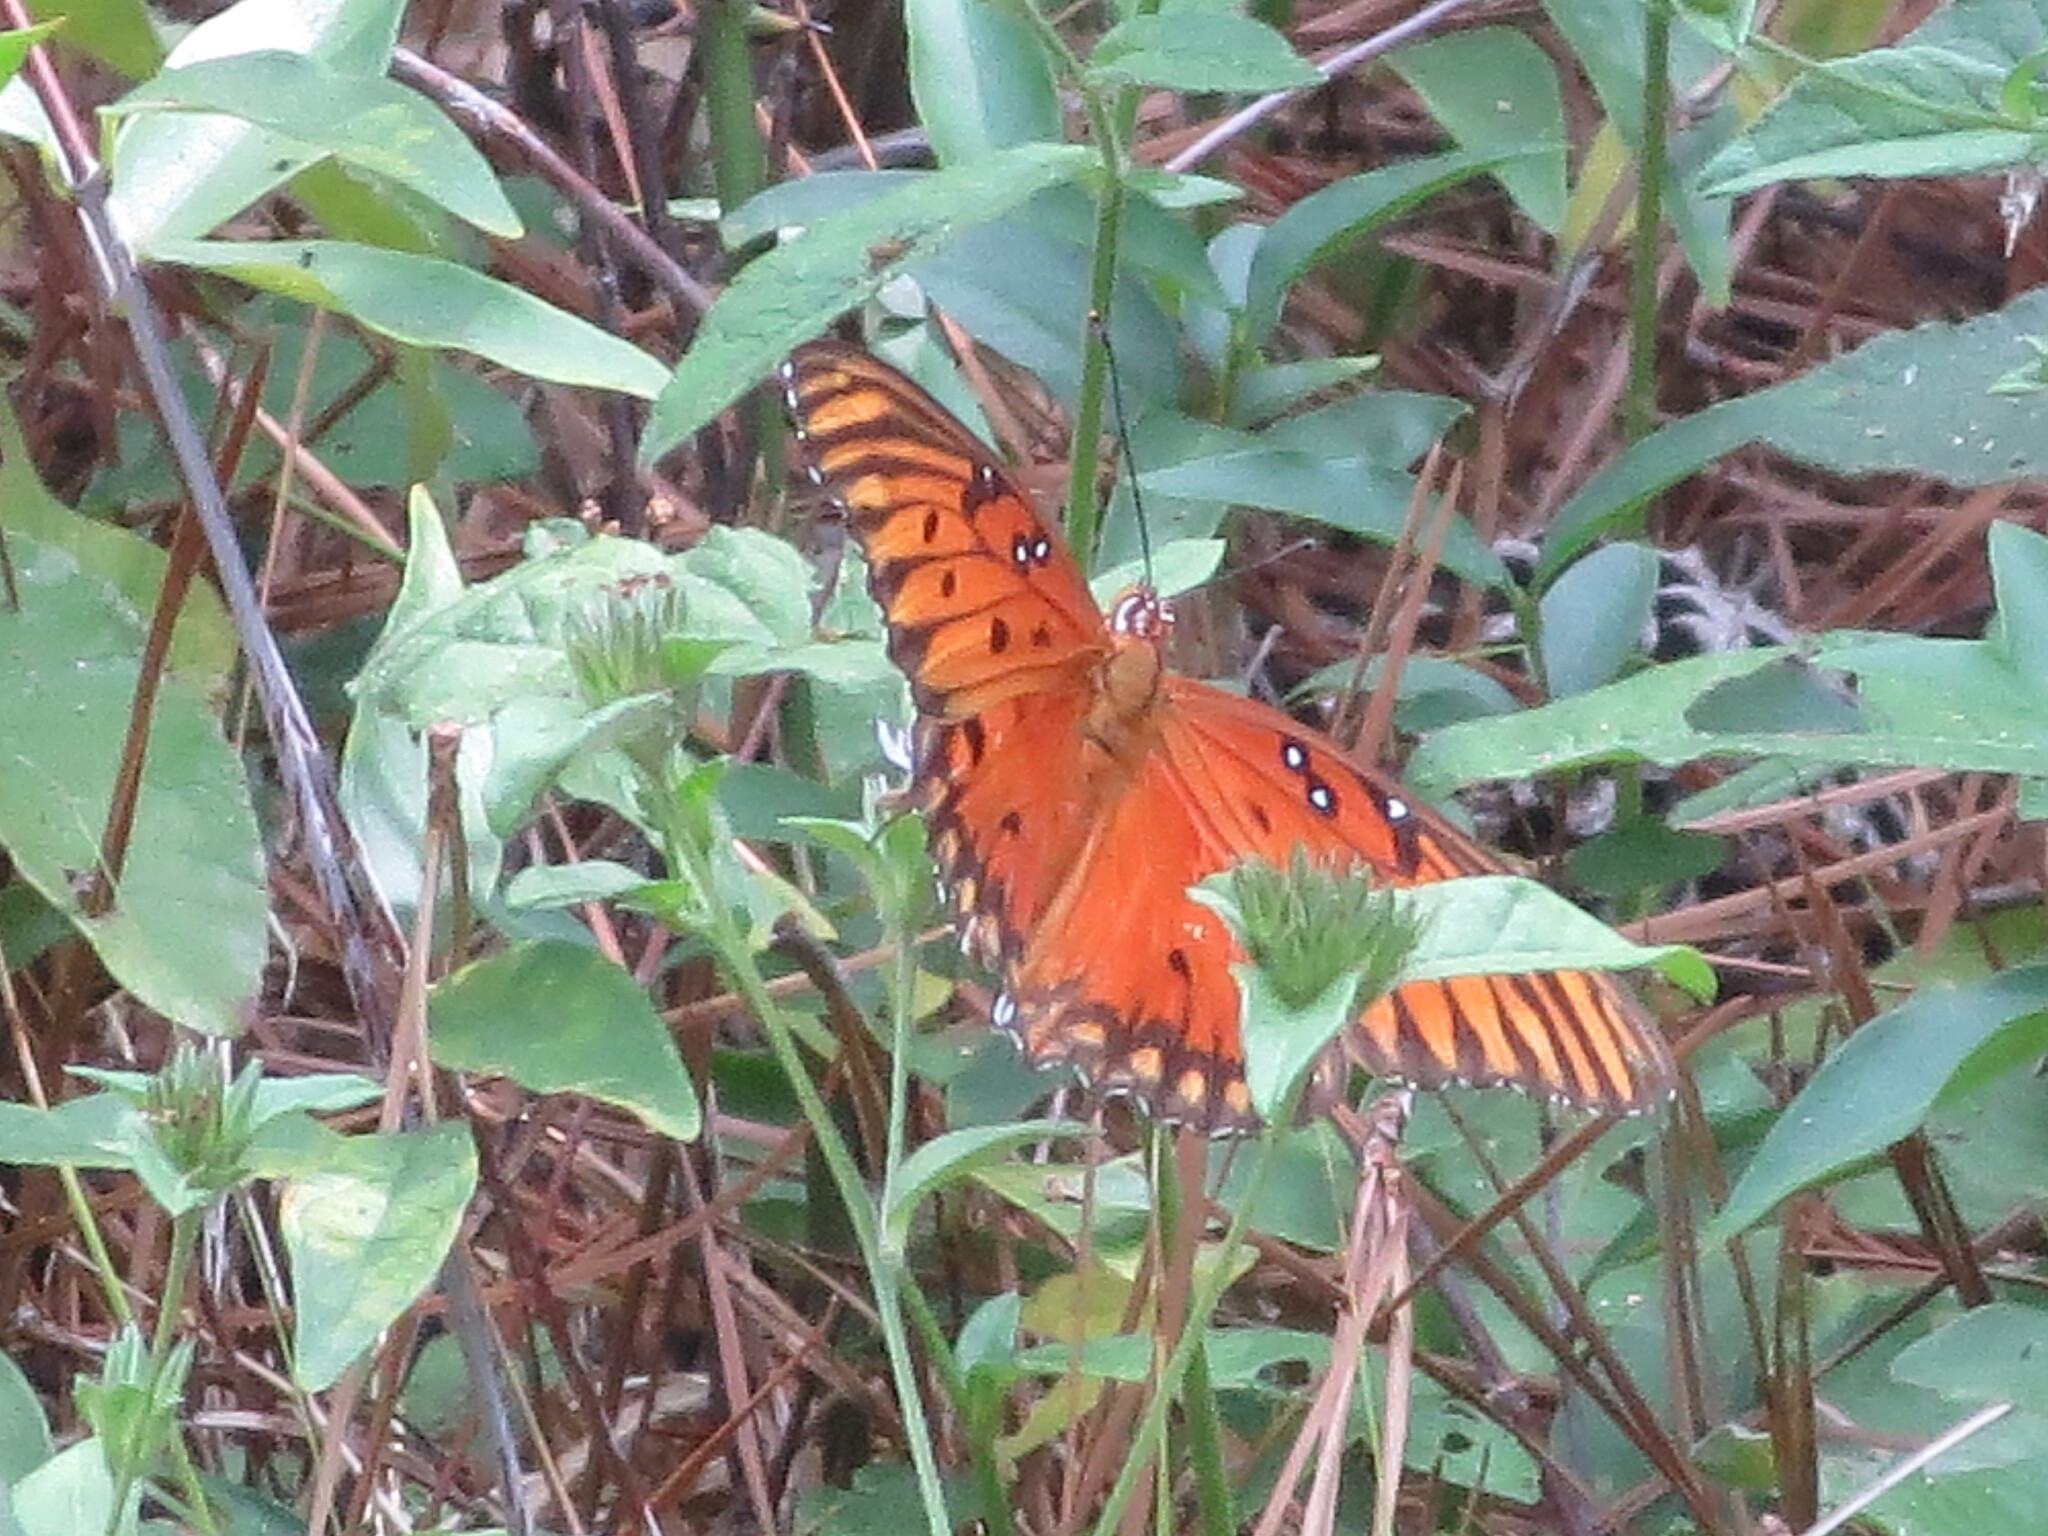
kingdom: Animalia
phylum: Arthropoda
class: Insecta
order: Lepidoptera
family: Nymphalidae
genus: Dione
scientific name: Dione vanillae
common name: Gulf fritillary
